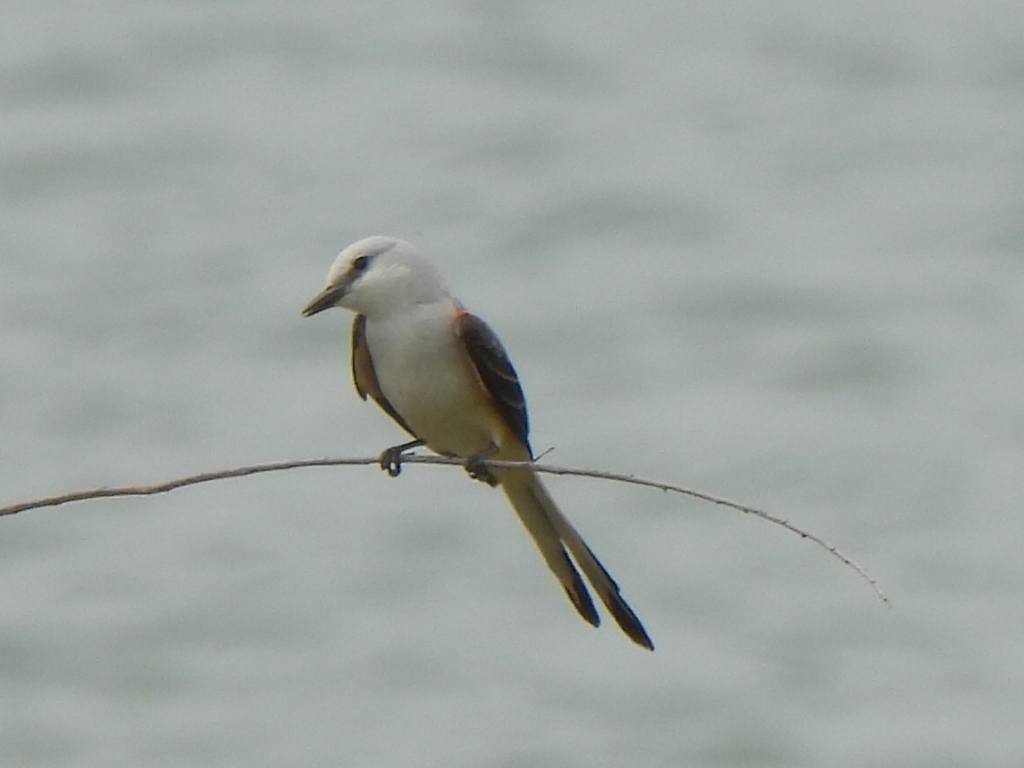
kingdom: Animalia
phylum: Chordata
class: Aves
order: Passeriformes
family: Tyrannidae
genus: Tyrannus
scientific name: Tyrannus forficatus
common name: Scissor-tailed flycatcher
